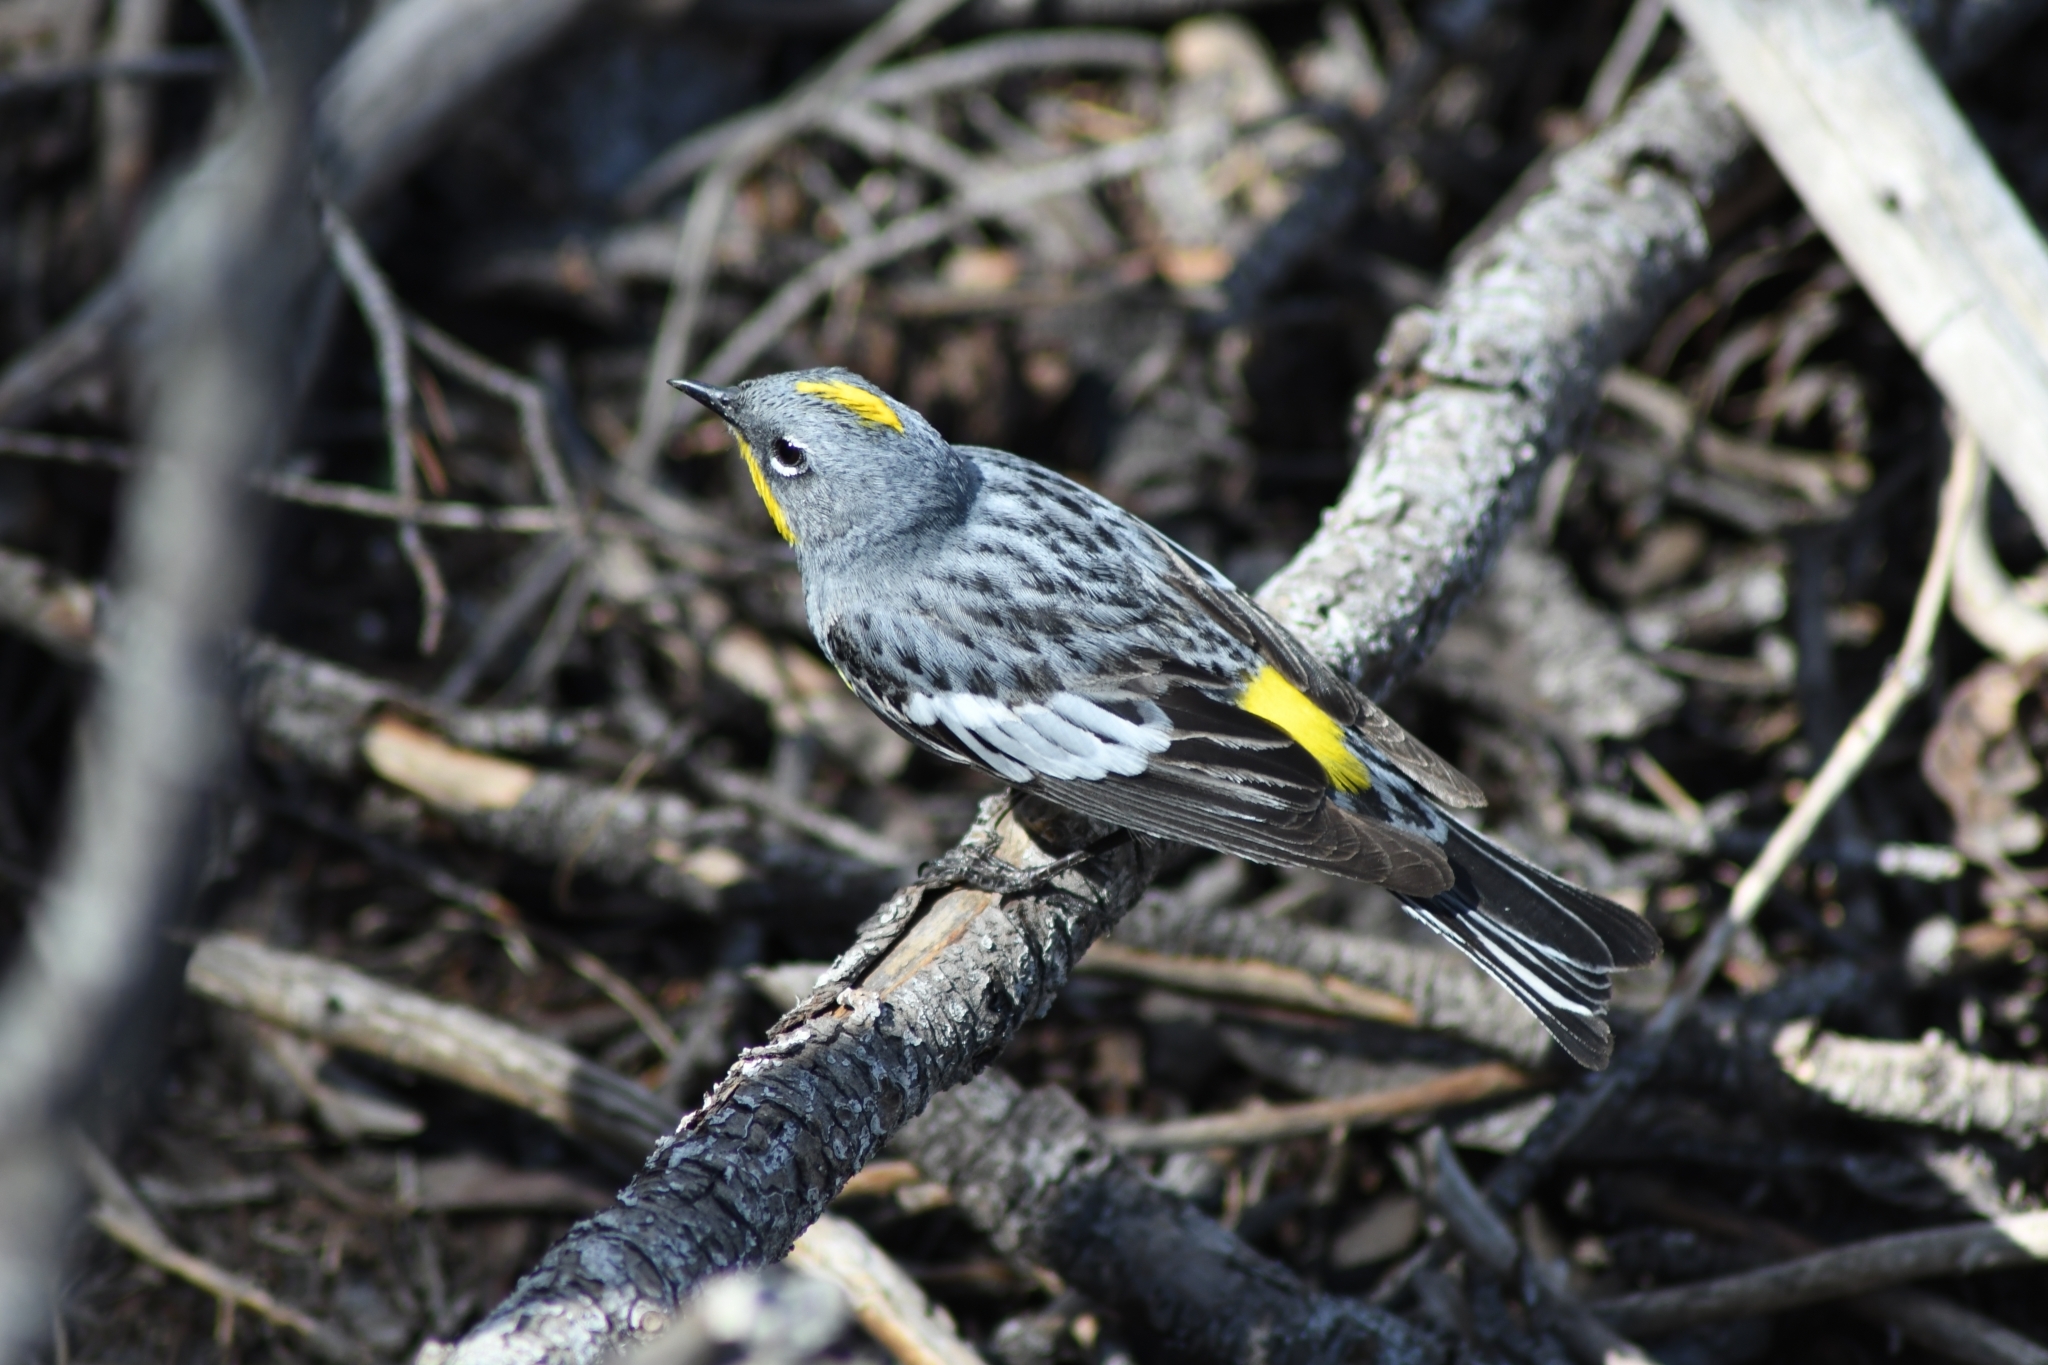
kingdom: Animalia
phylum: Chordata
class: Aves
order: Passeriformes
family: Parulidae
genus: Setophaga
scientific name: Setophaga auduboni
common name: Audubon's warbler
